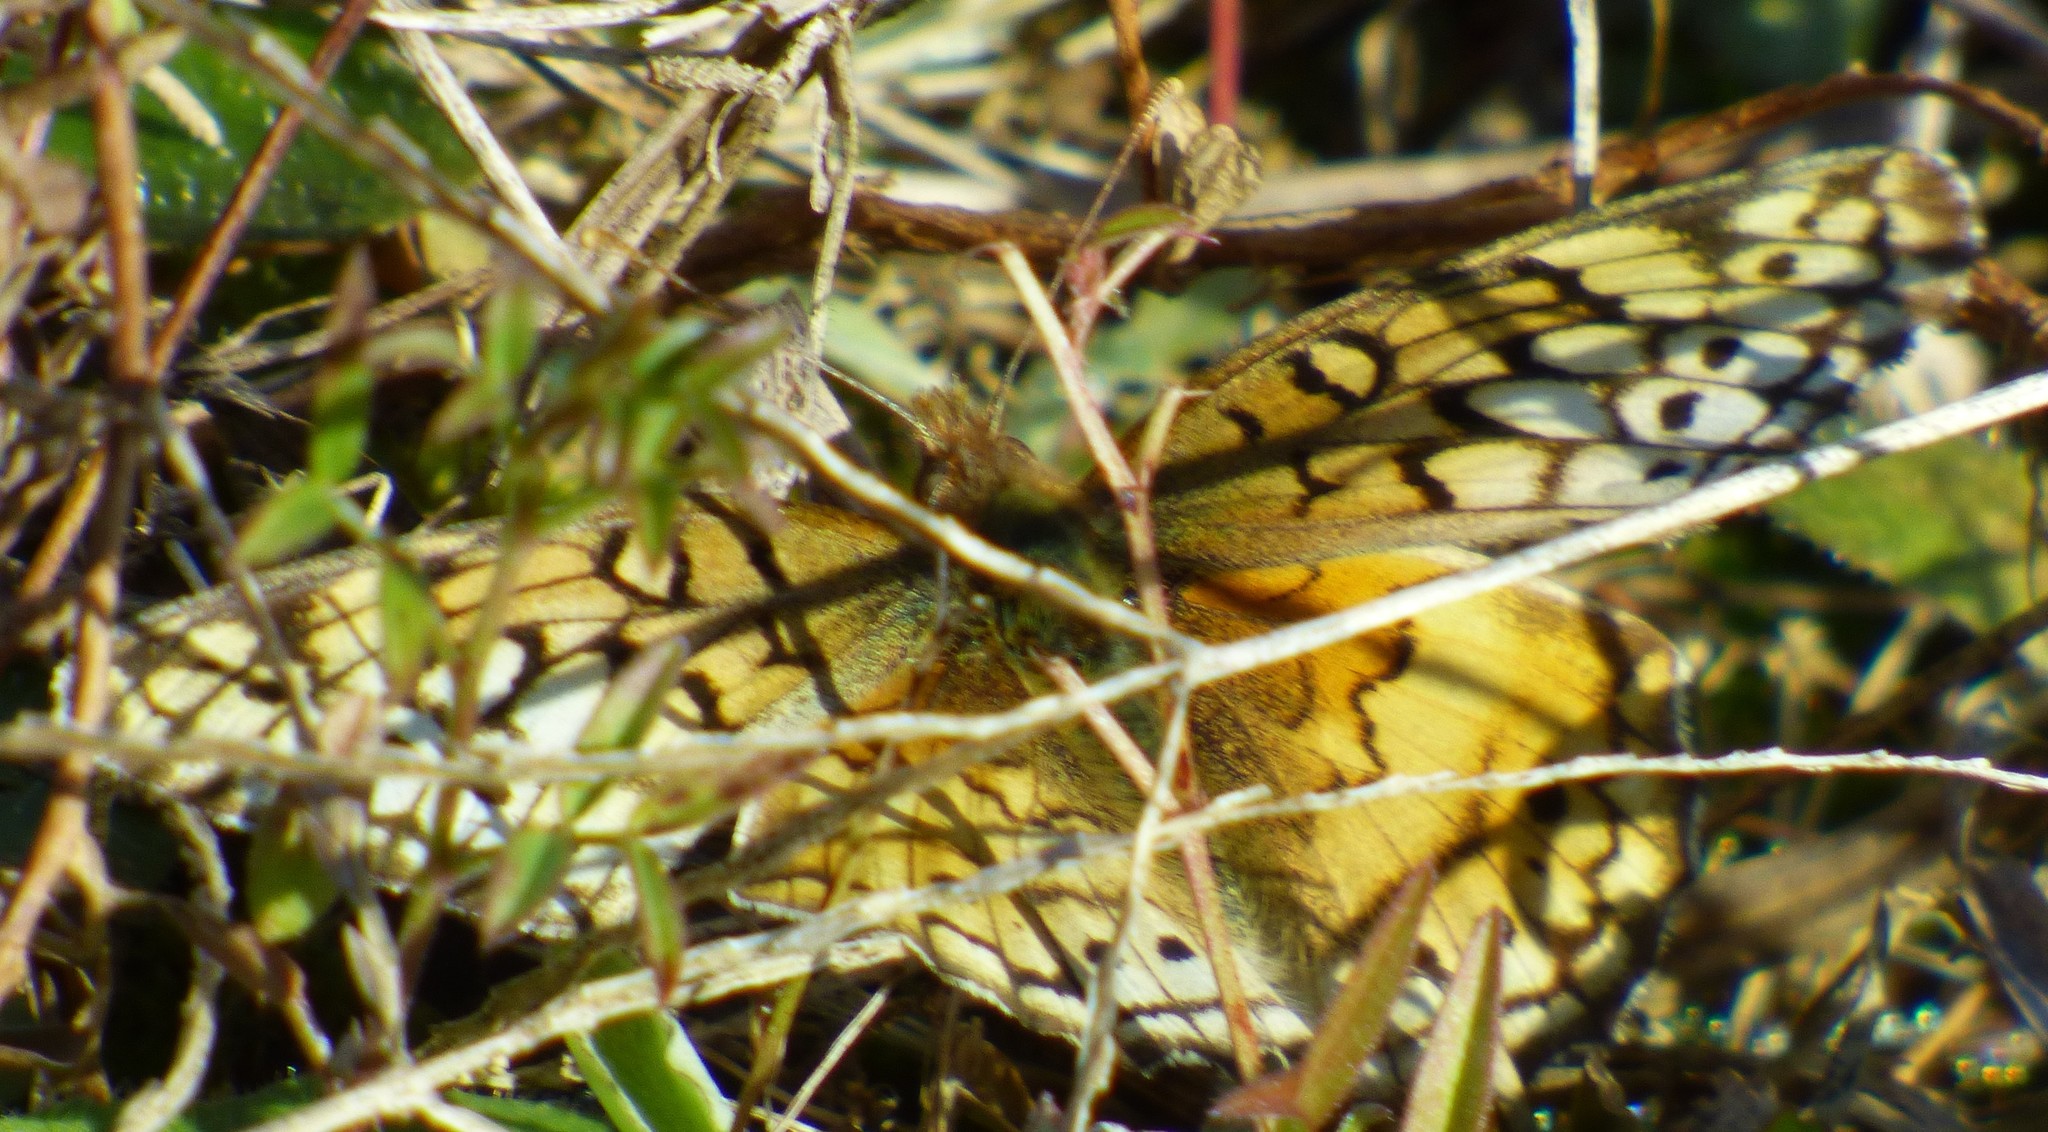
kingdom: Animalia
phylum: Arthropoda
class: Insecta
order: Lepidoptera
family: Nymphalidae
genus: Euptoieta
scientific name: Euptoieta claudia
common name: Variegated fritillary
